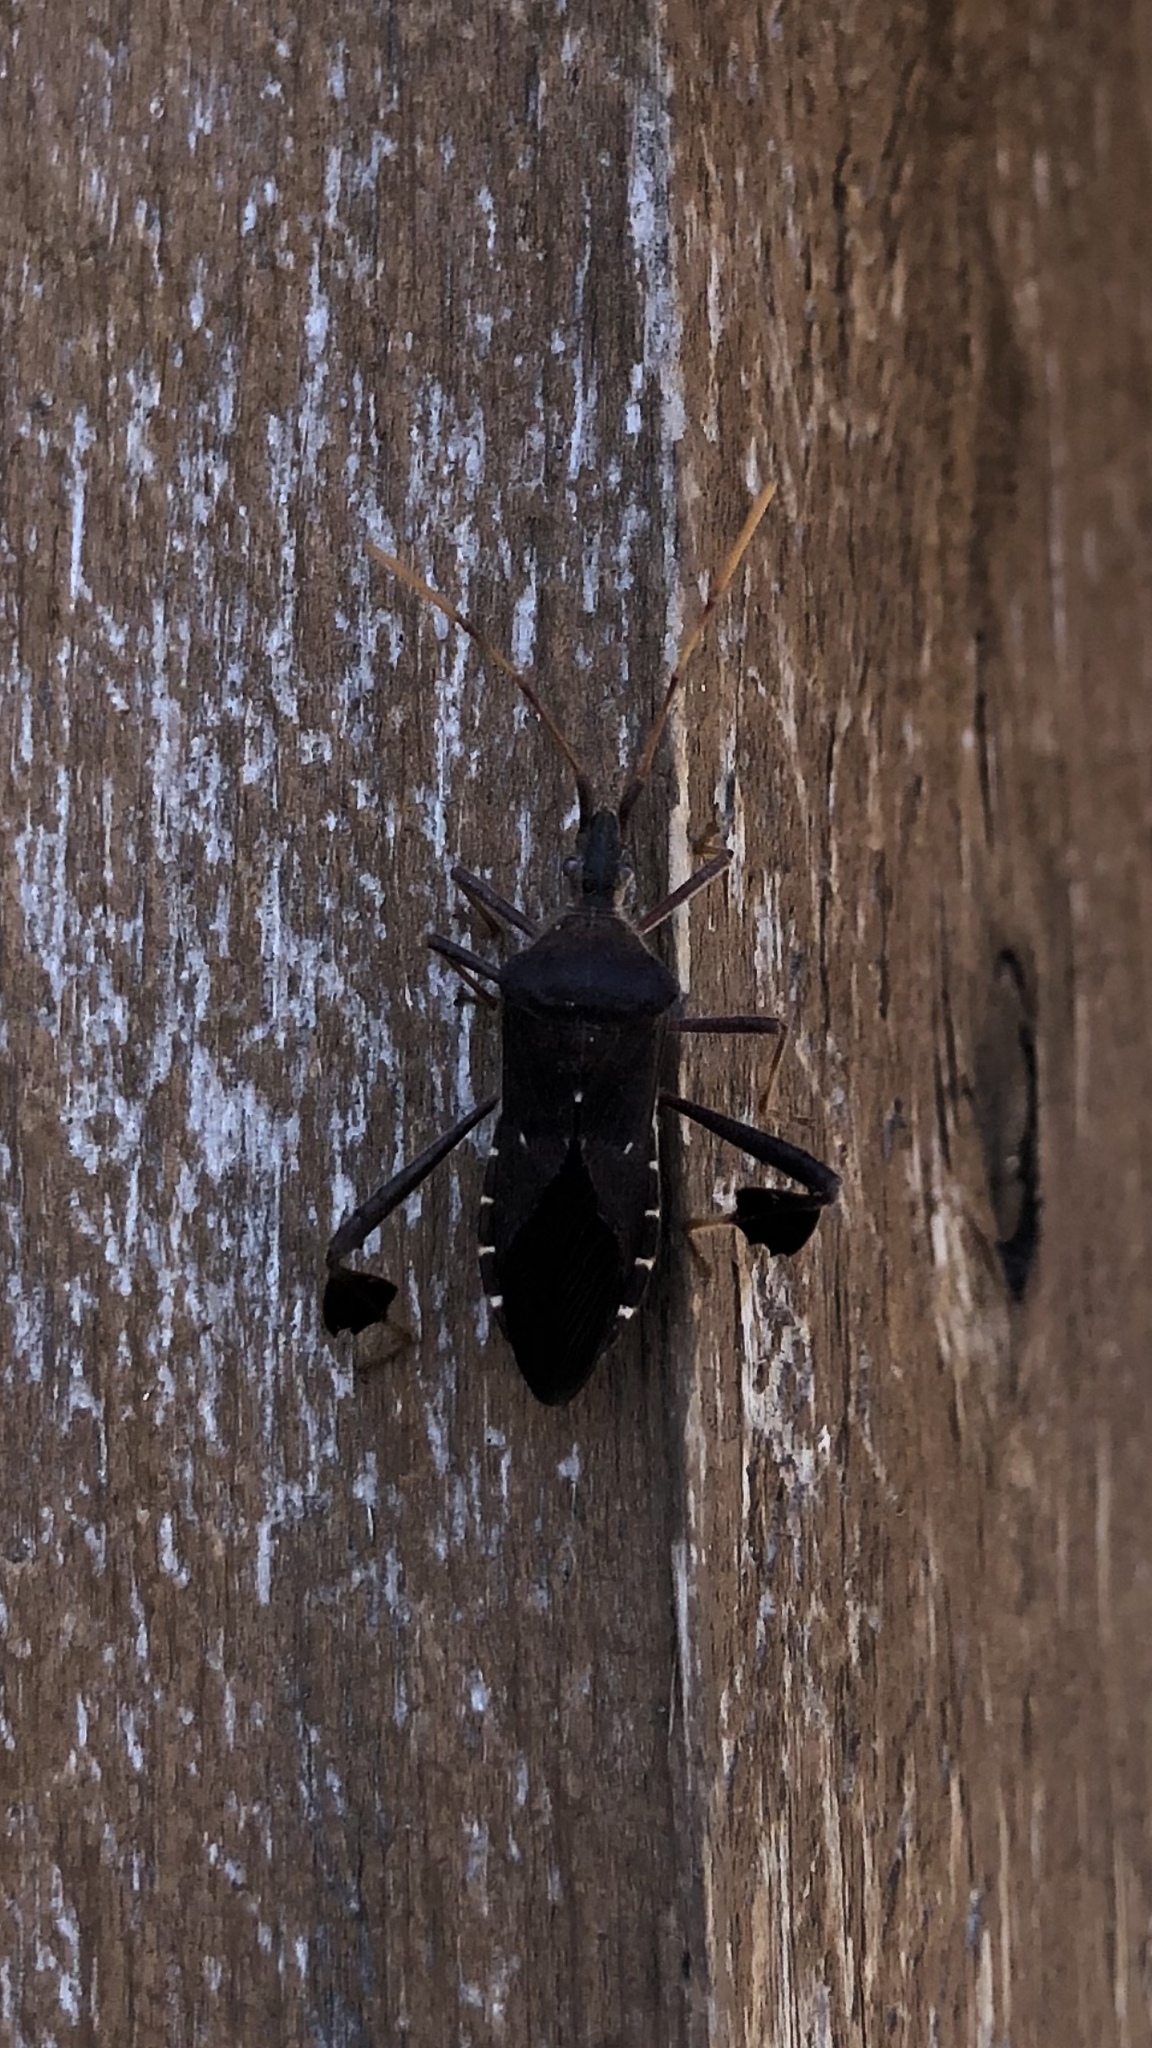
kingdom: Animalia
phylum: Arthropoda
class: Insecta
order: Hemiptera
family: Coreidae
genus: Leptoglossus
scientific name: Leptoglossus oppositus
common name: Northern leaf-footed bug
